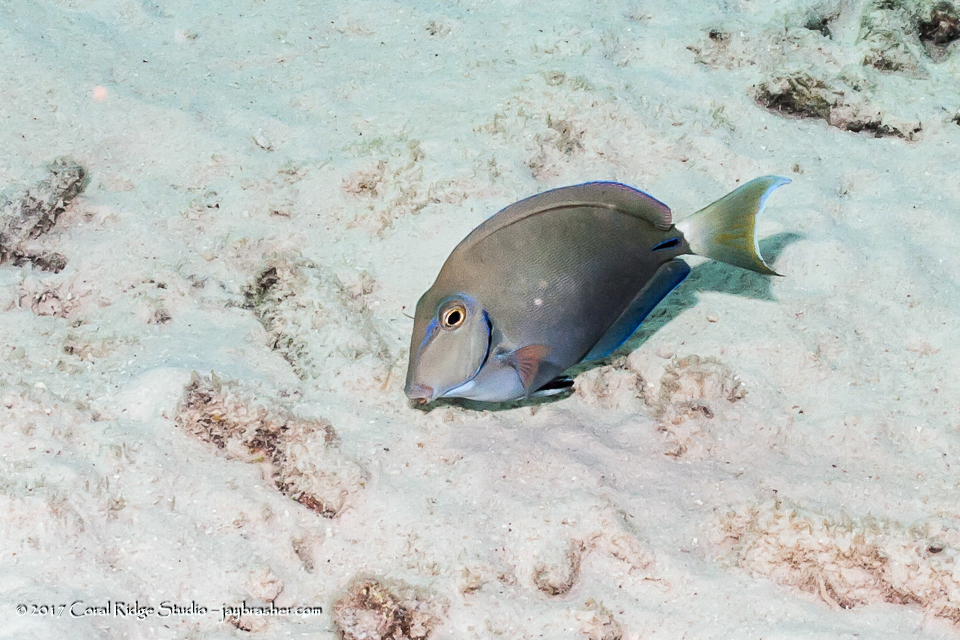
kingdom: Animalia
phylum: Chordata
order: Perciformes
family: Acanthuridae
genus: Acanthurus
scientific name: Acanthurus bahianus
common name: Ocean surgeon
